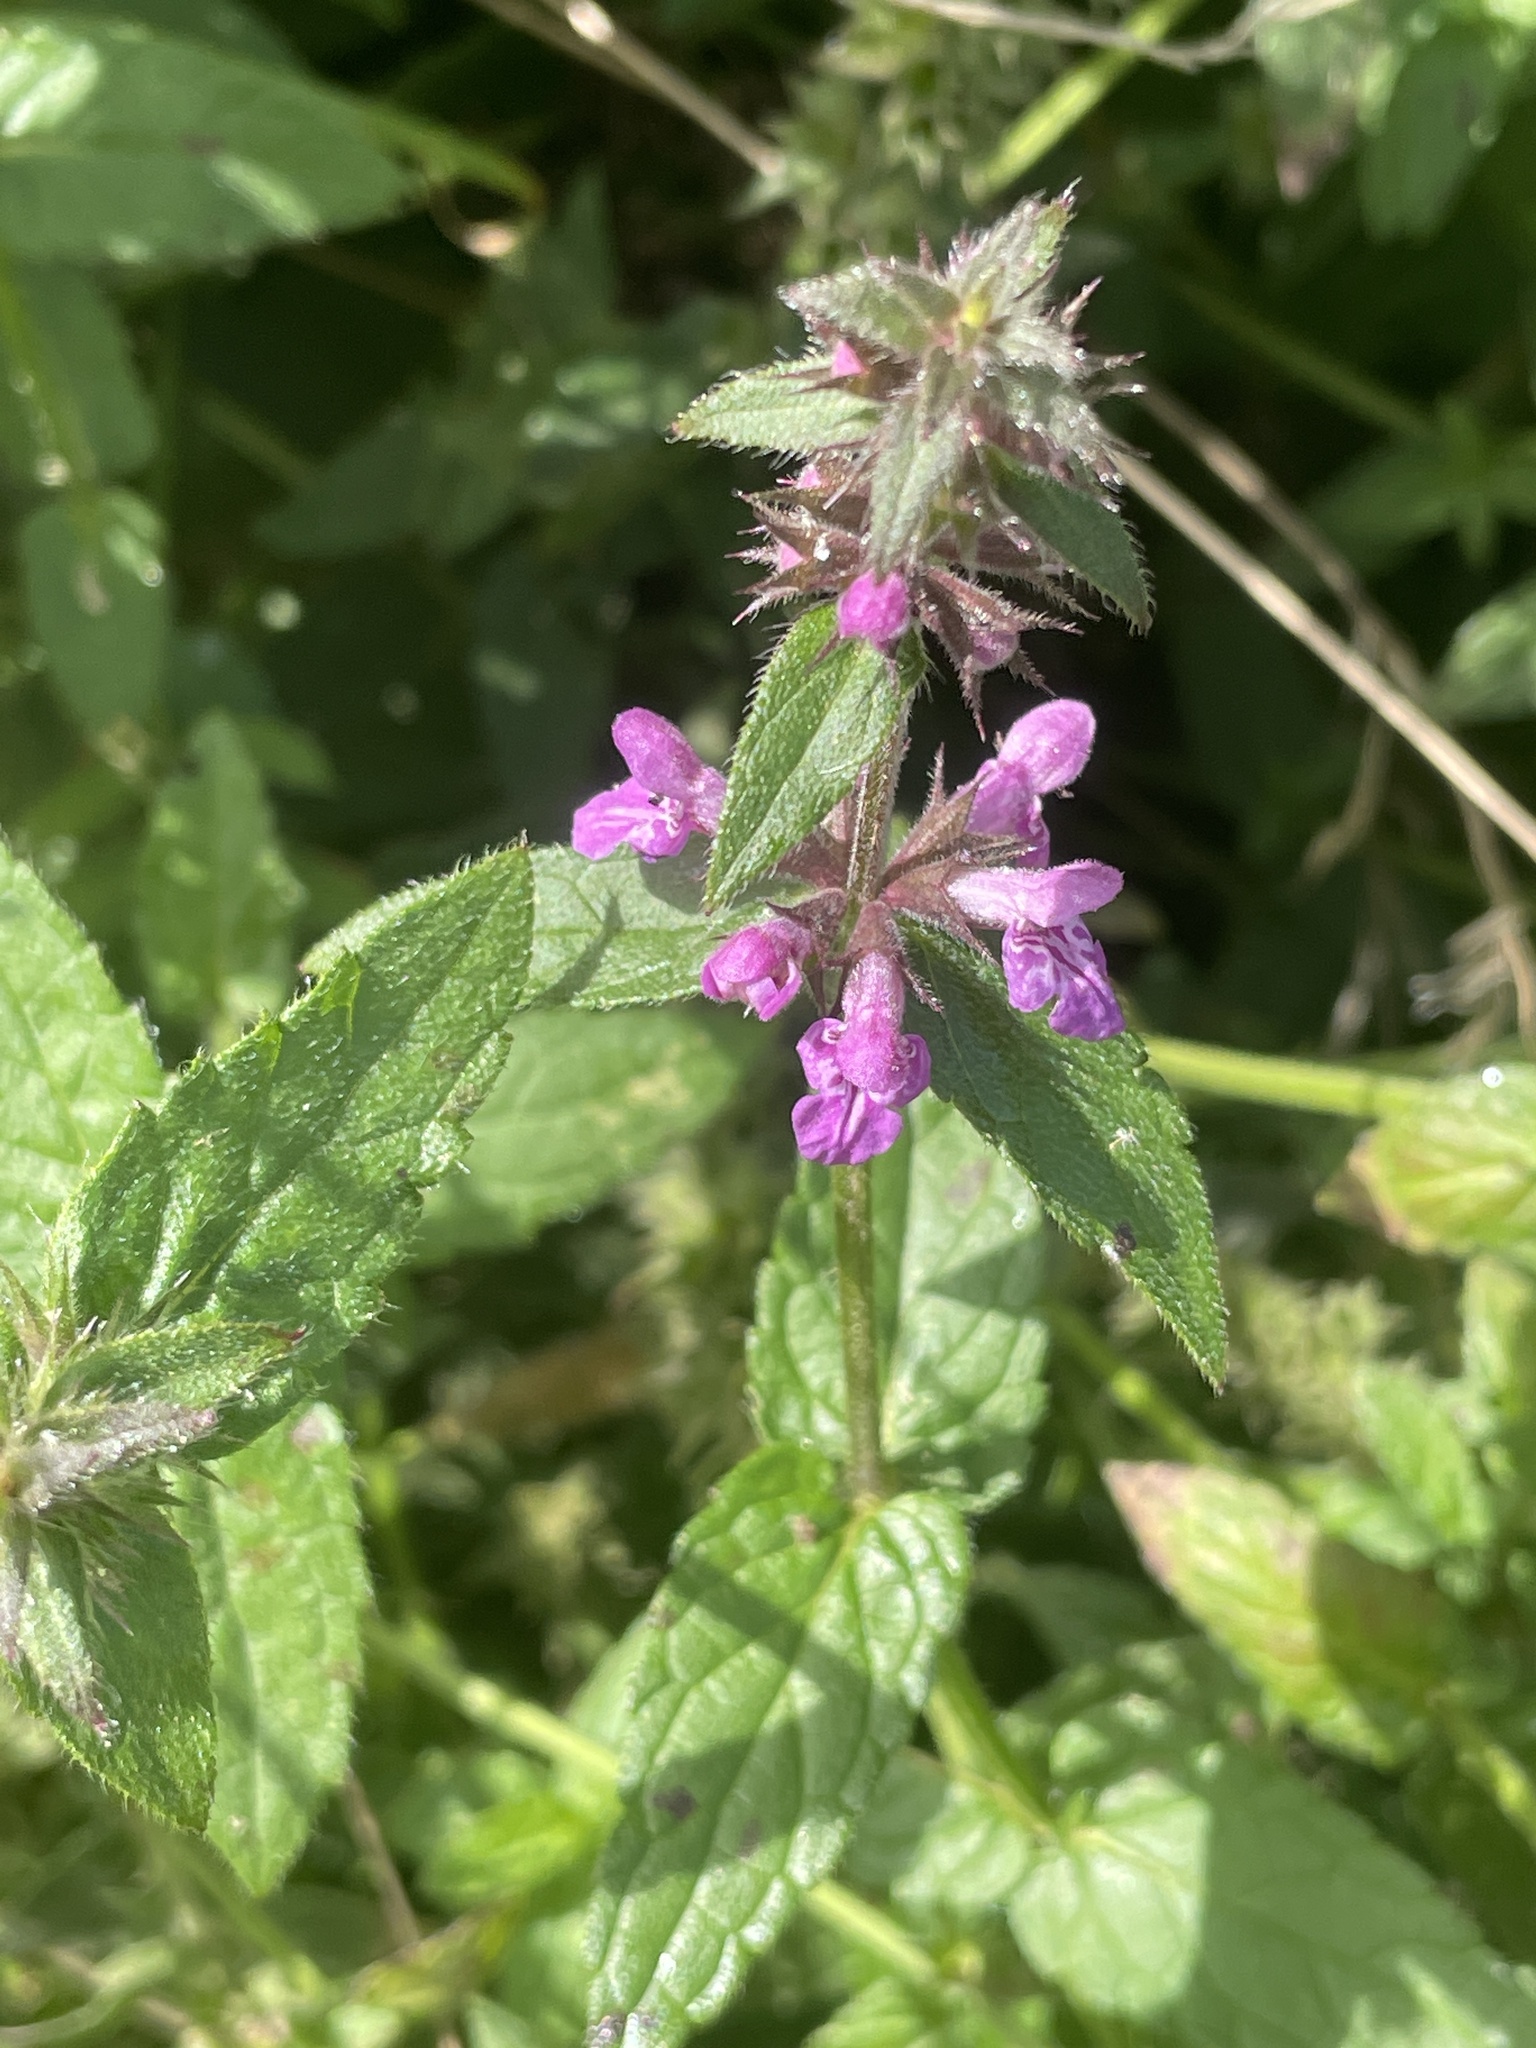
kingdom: Plantae
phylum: Tracheophyta
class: Magnoliopsida
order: Lamiales
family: Lamiaceae
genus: Stachys
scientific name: Stachys palustris
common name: Marsh woundwort
